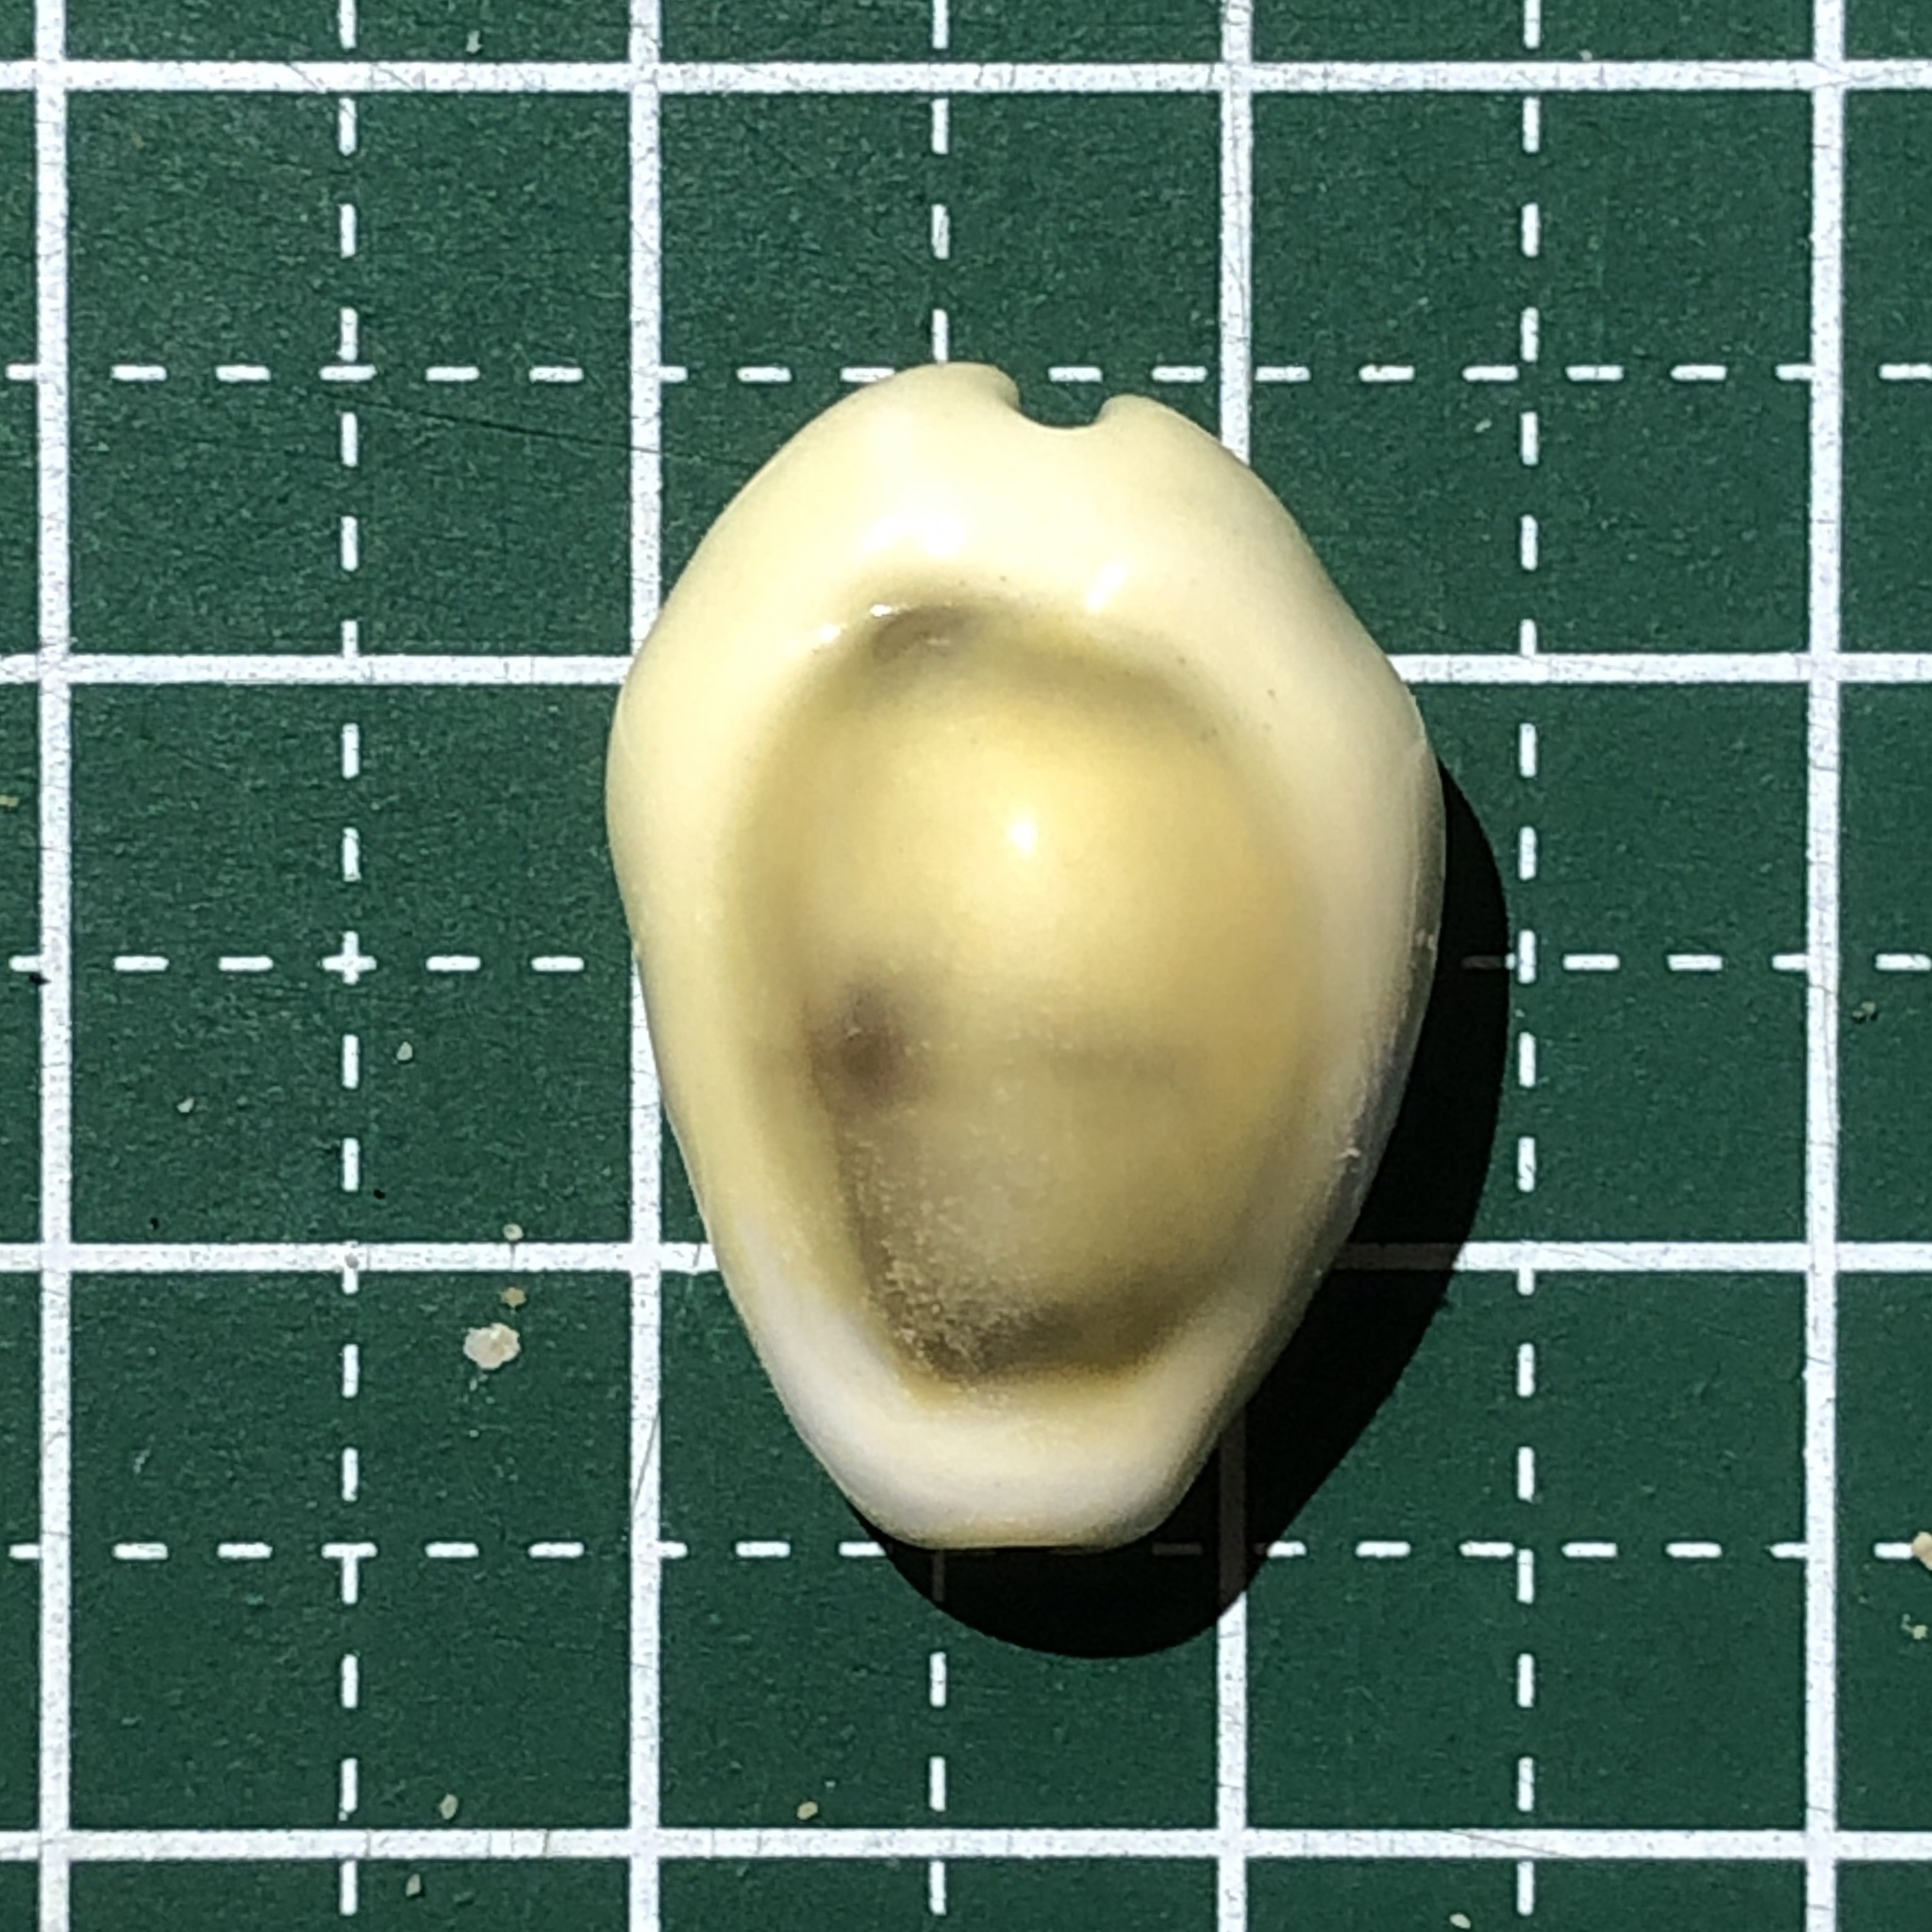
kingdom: Animalia
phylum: Mollusca
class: Gastropoda
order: Littorinimorpha
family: Cypraeidae
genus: Monetaria
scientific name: Monetaria moneta
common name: Money cowrie
